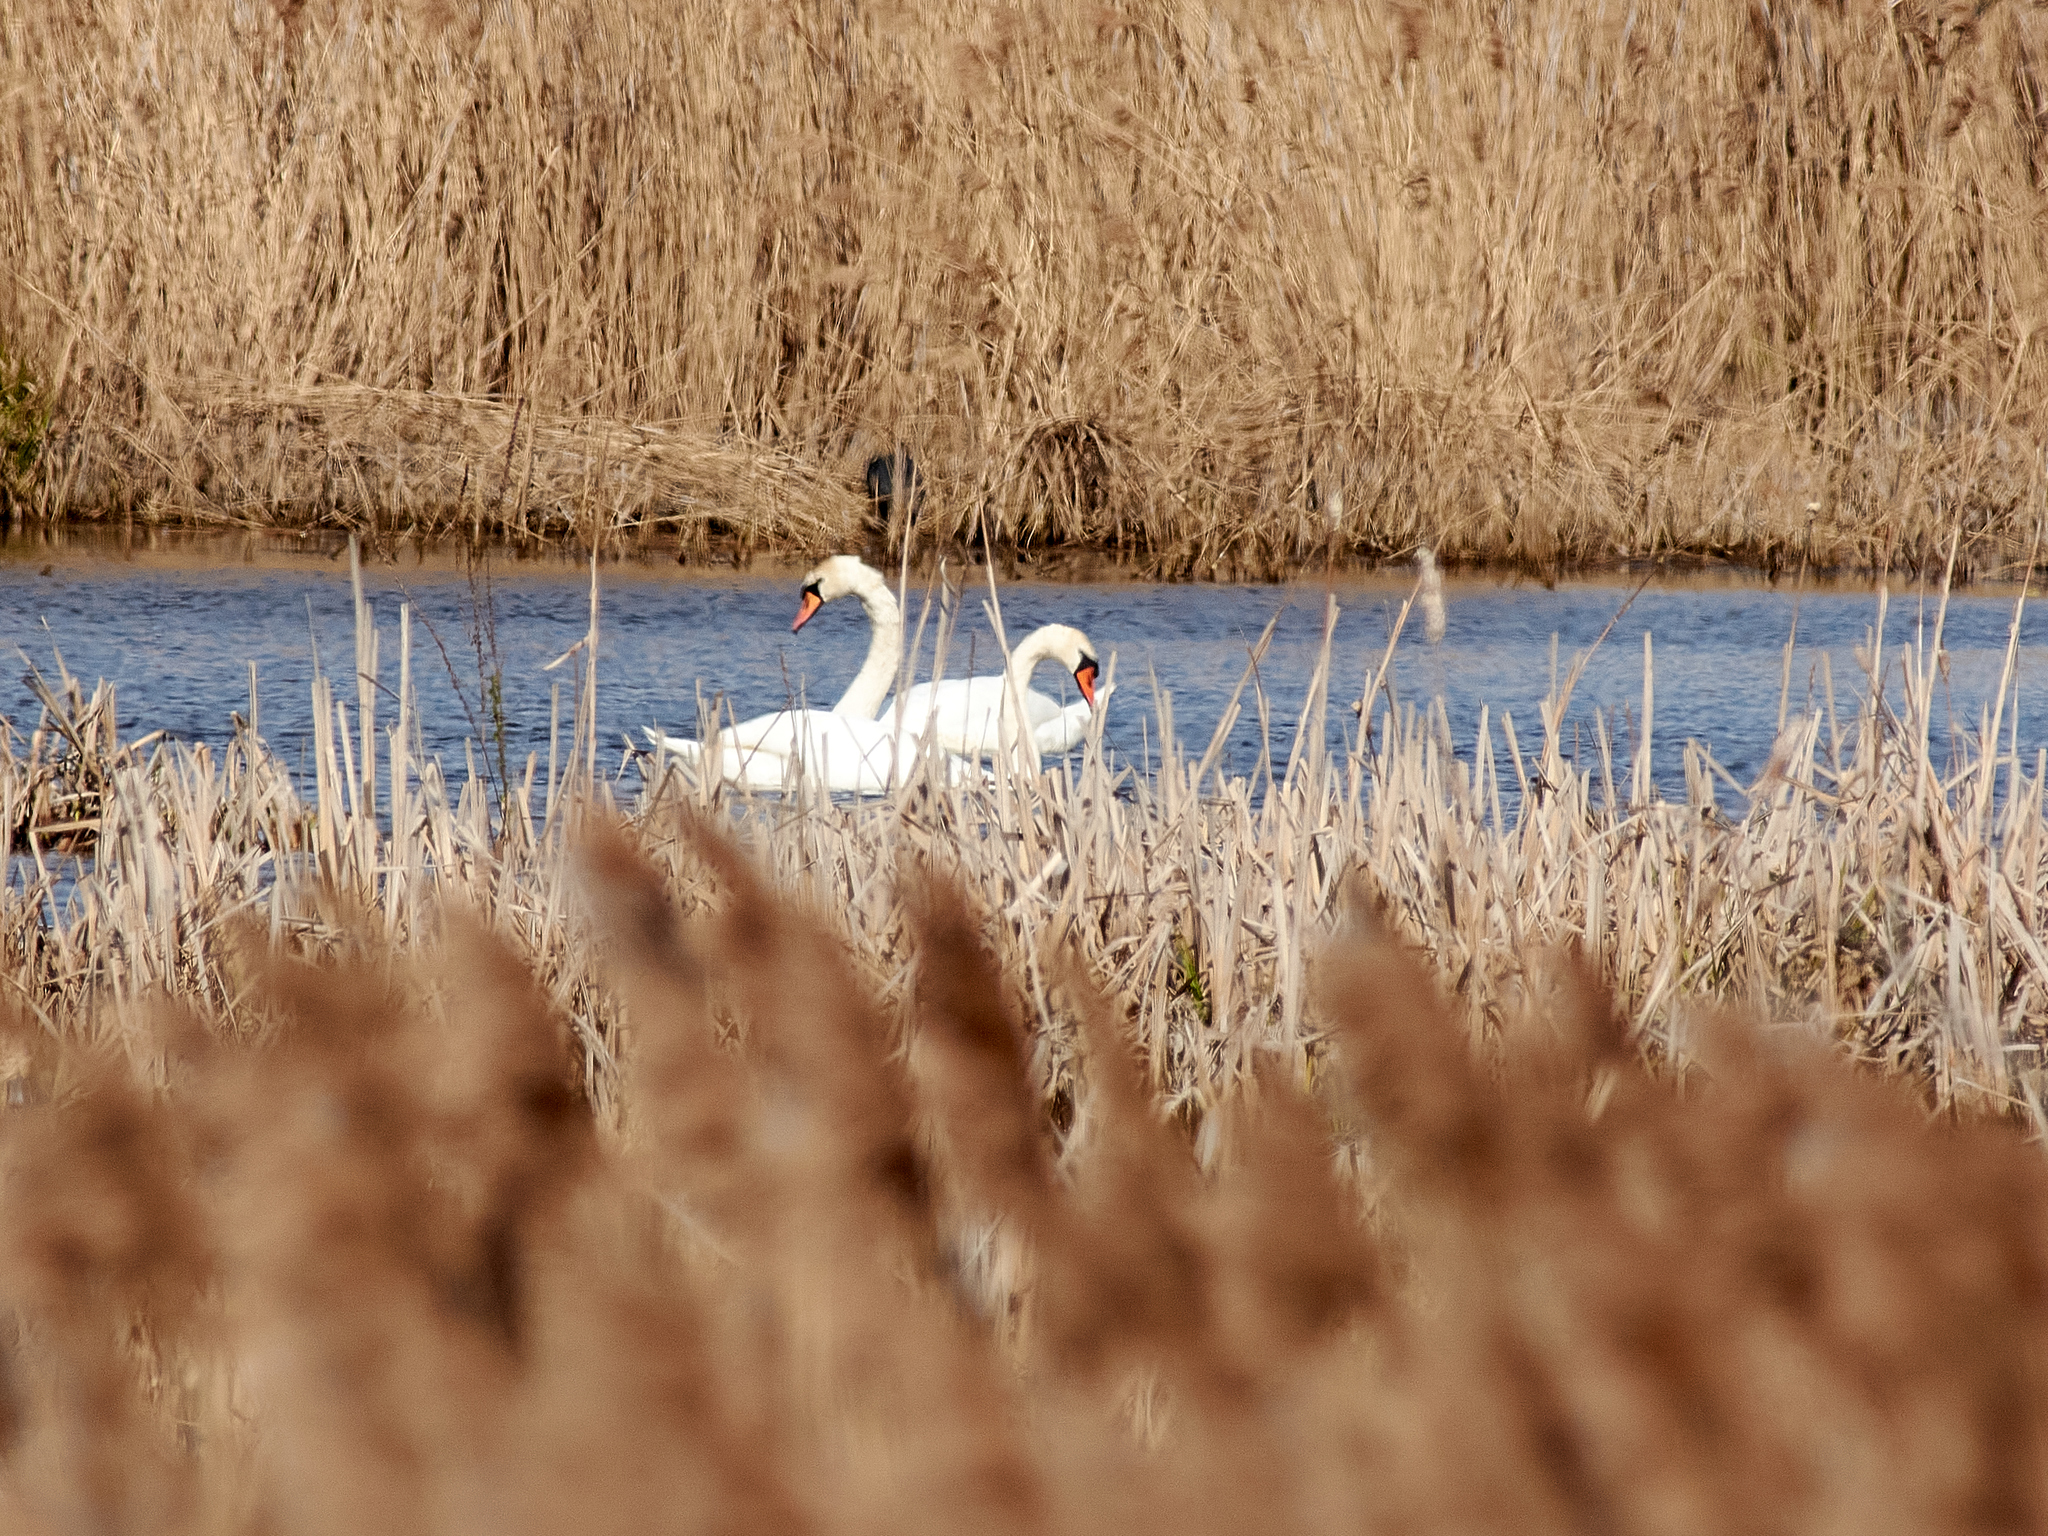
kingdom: Animalia
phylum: Chordata
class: Aves
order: Anseriformes
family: Anatidae
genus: Cygnus
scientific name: Cygnus olor
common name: Mute swan
